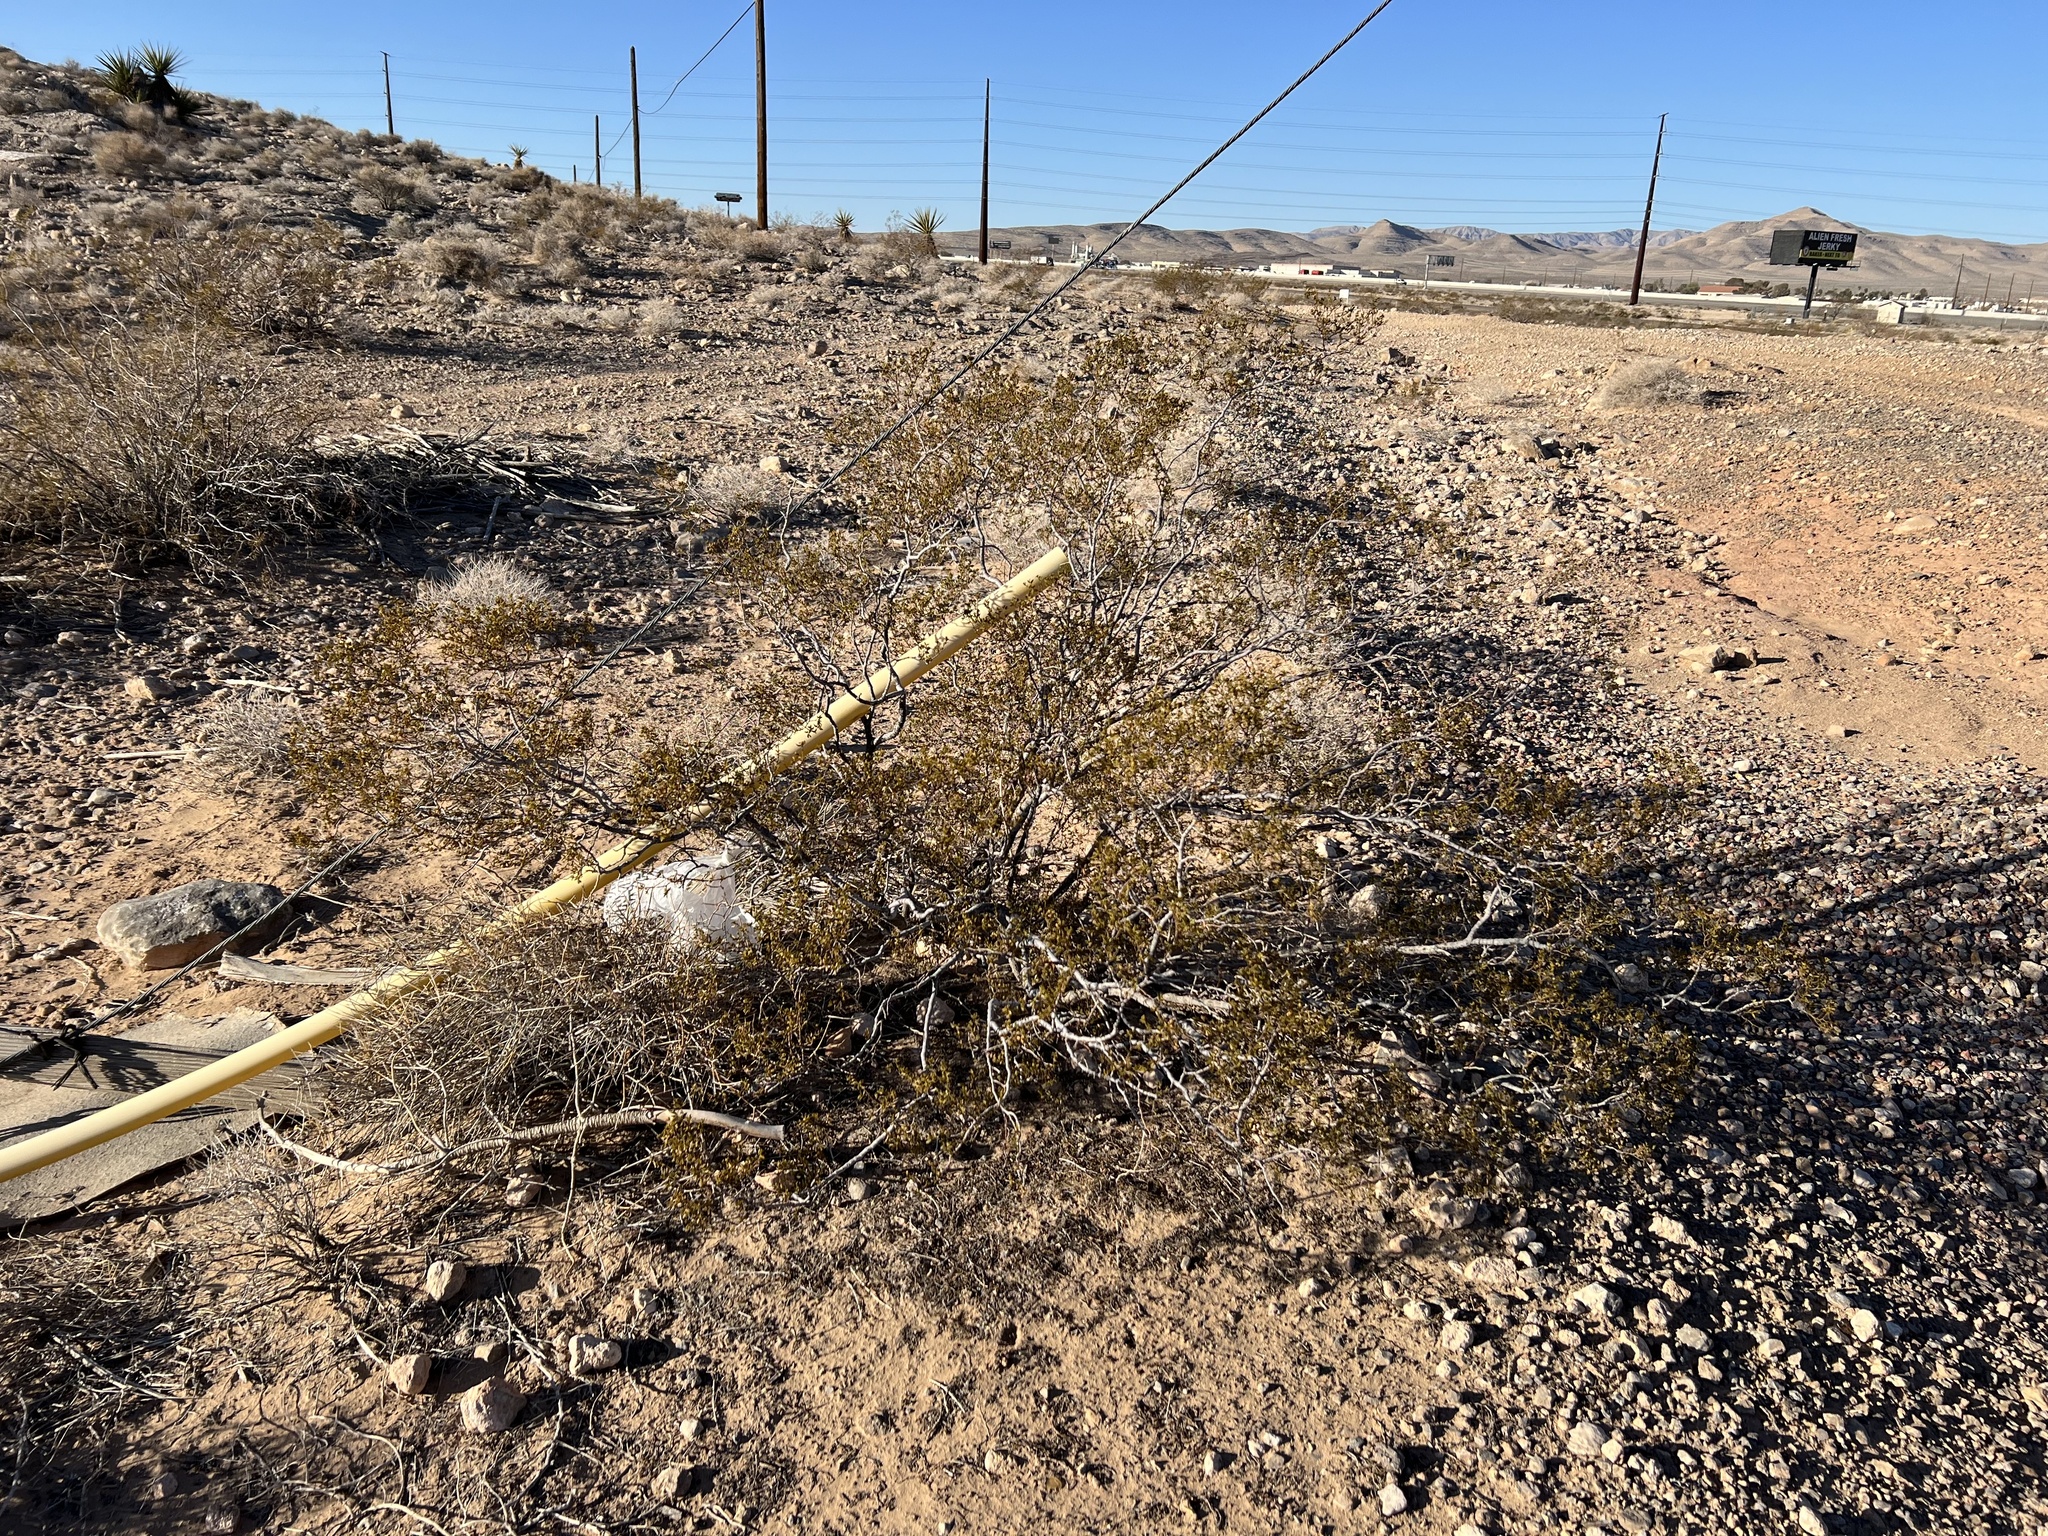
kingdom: Plantae
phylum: Tracheophyta
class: Magnoliopsida
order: Zygophyllales
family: Zygophyllaceae
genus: Larrea
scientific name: Larrea tridentata
